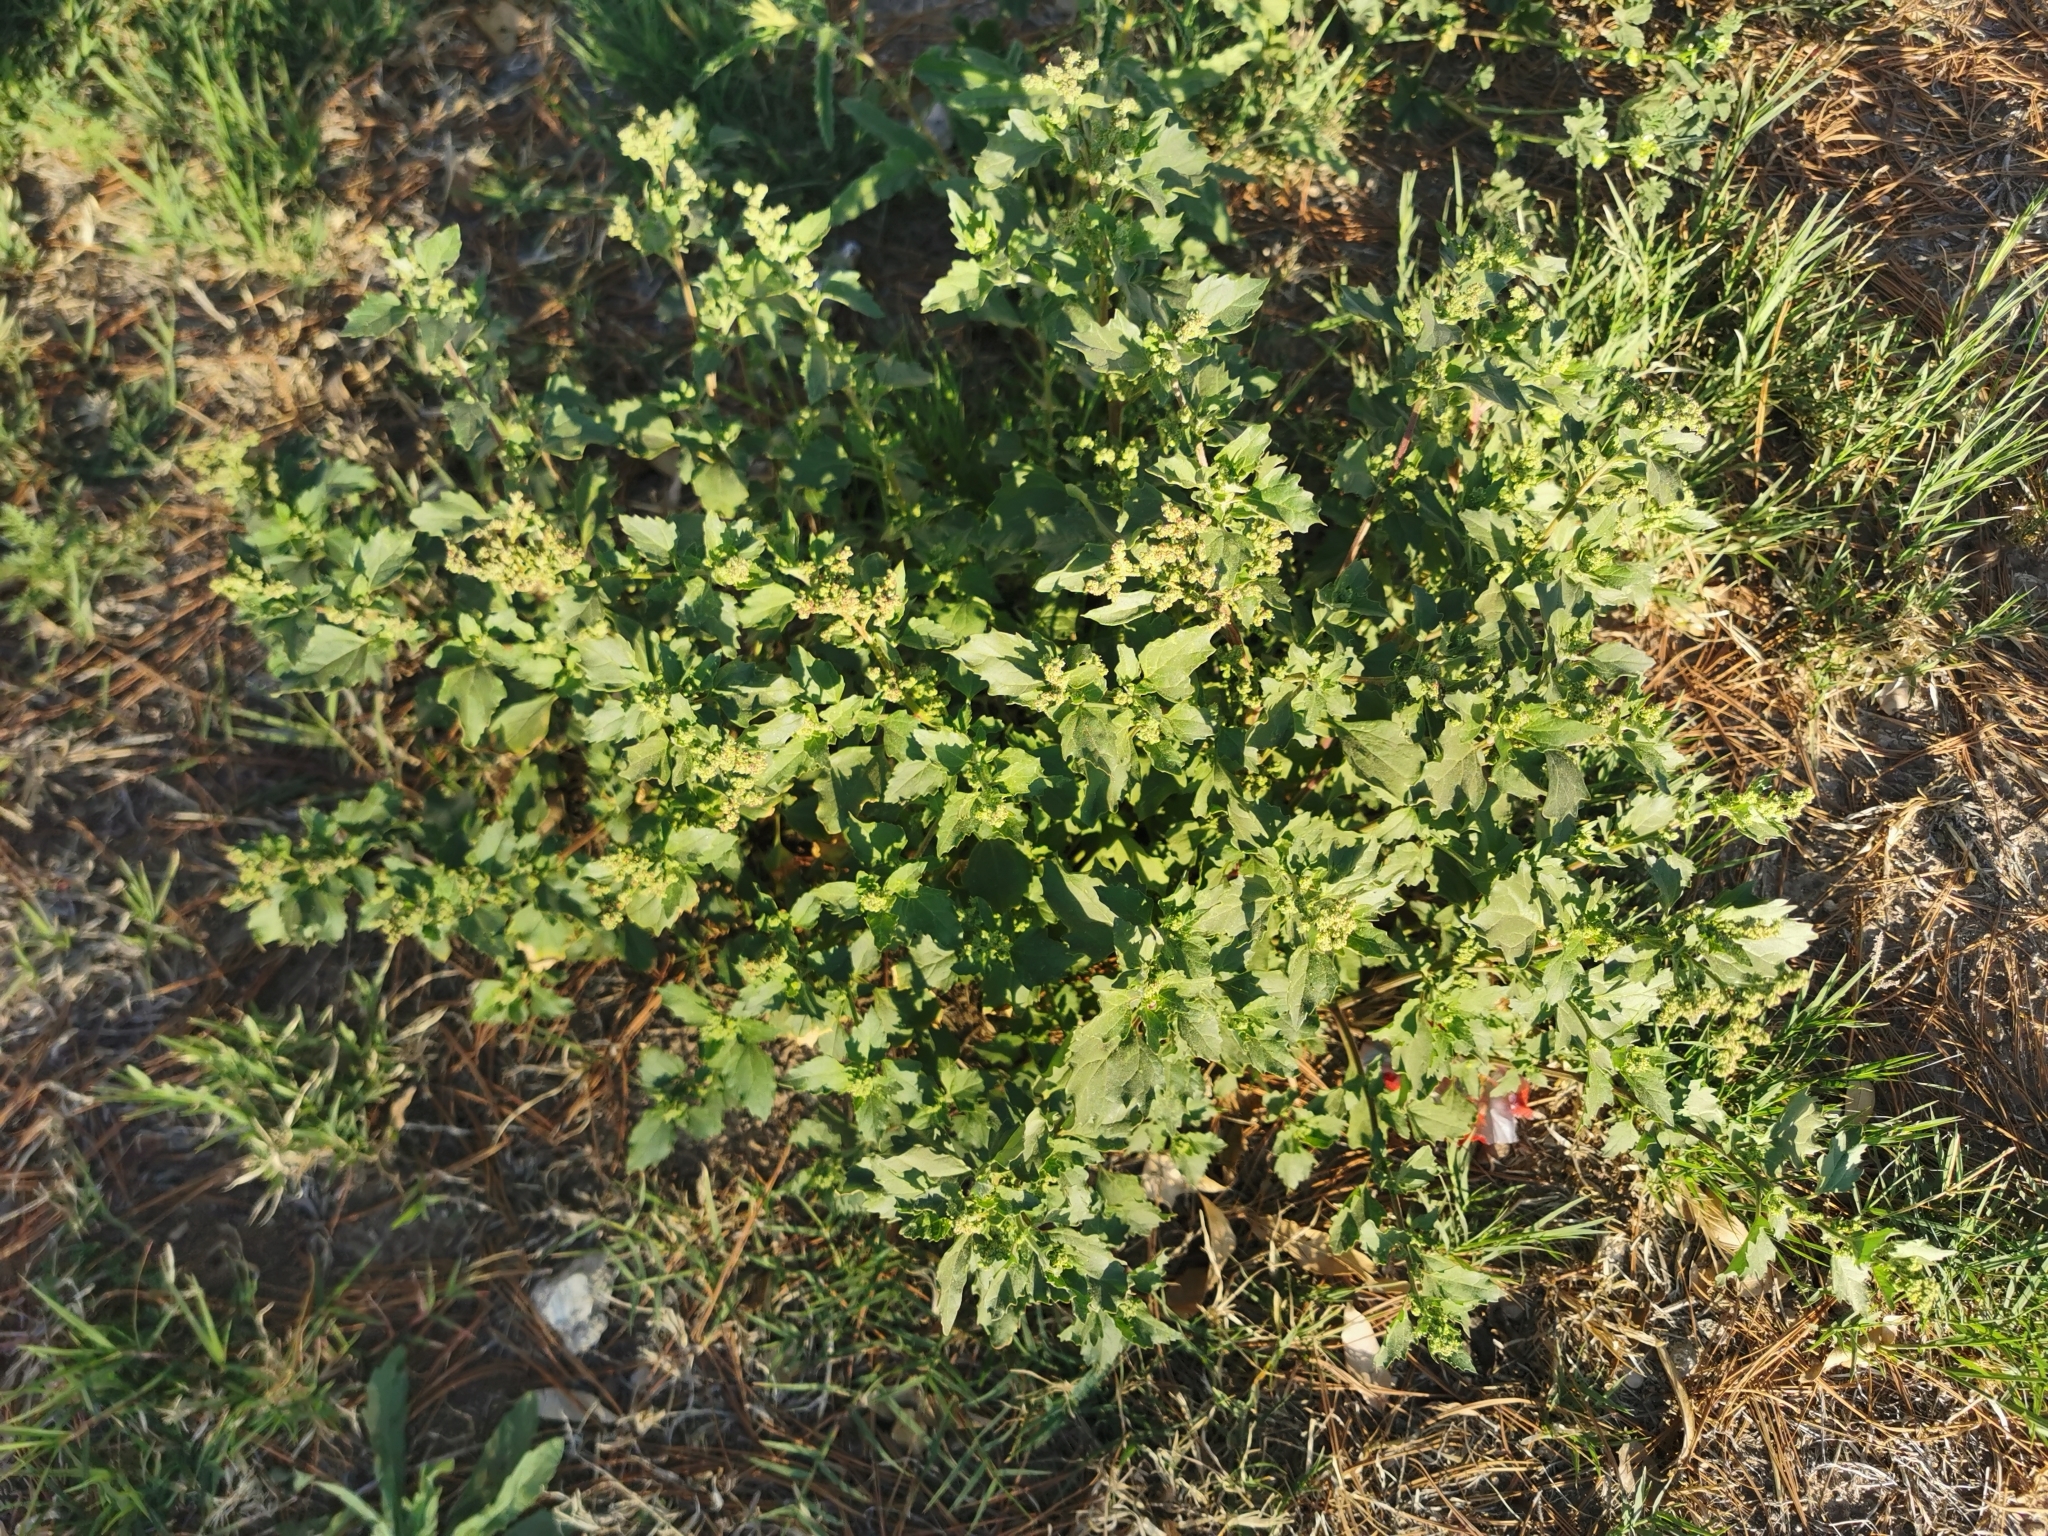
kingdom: Plantae
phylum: Tracheophyta
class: Magnoliopsida
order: Caryophyllales
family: Amaranthaceae
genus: Chenopodiastrum
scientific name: Chenopodiastrum murale
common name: Sowbane
